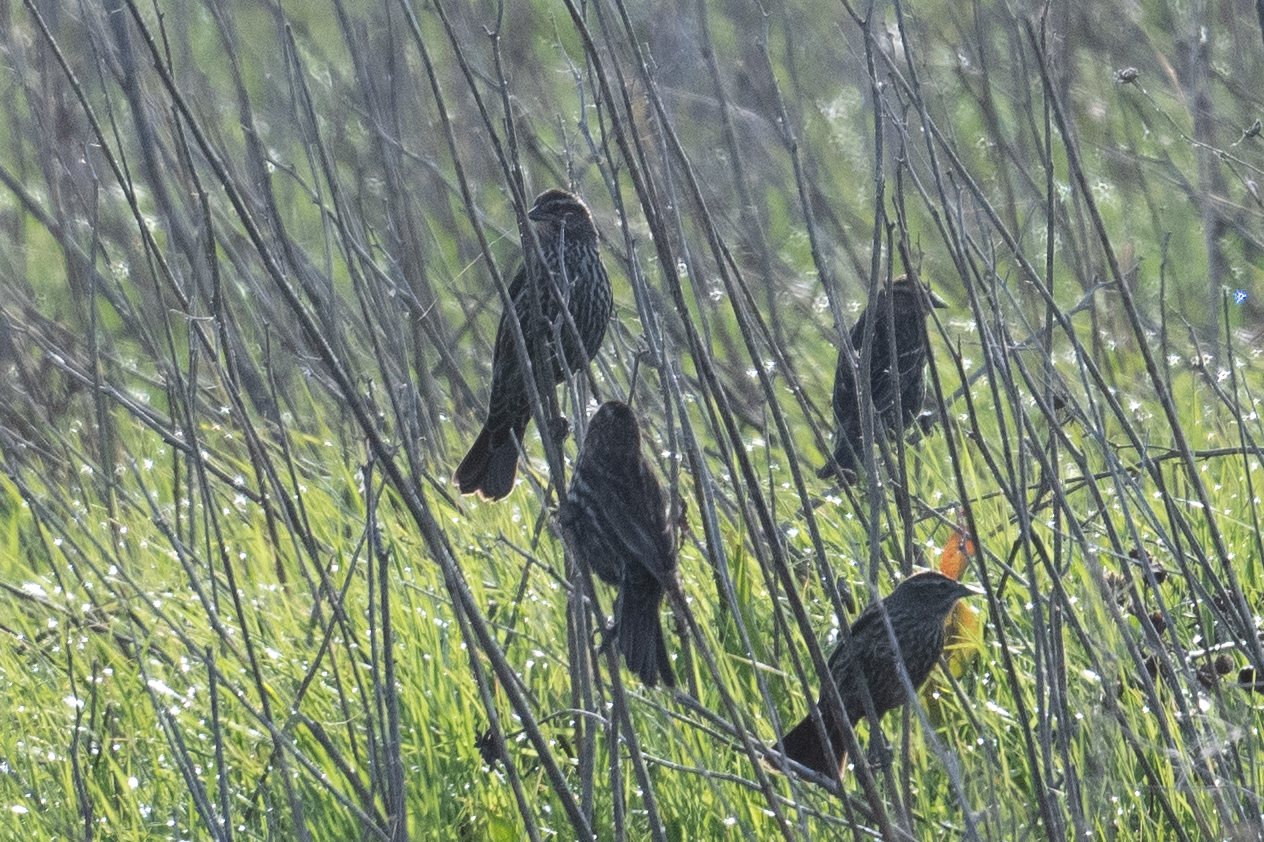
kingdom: Animalia
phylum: Chordata
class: Aves
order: Passeriformes
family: Icteridae
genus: Agelaius
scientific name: Agelaius phoeniceus
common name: Red-winged blackbird
